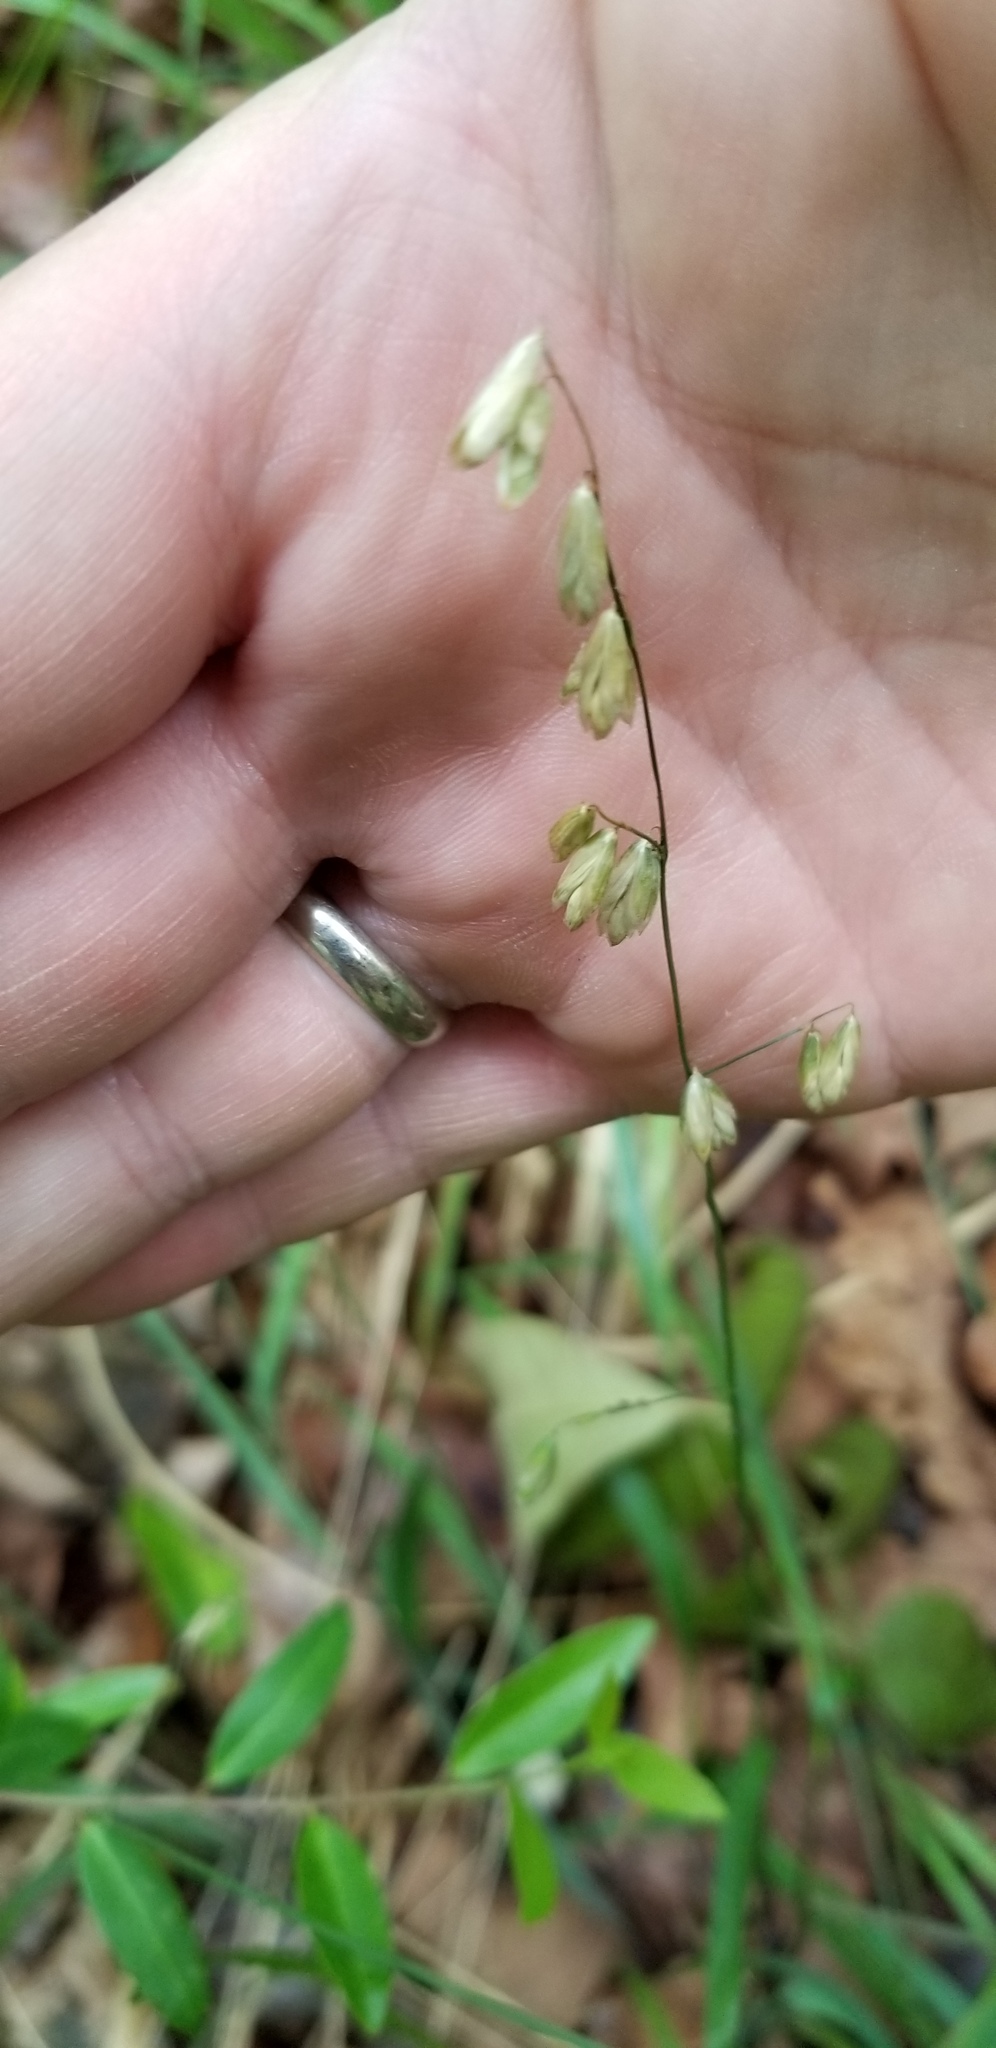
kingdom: Plantae
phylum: Tracheophyta
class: Liliopsida
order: Poales
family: Poaceae
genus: Melica
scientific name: Melica mutica
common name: Two-flower melic
